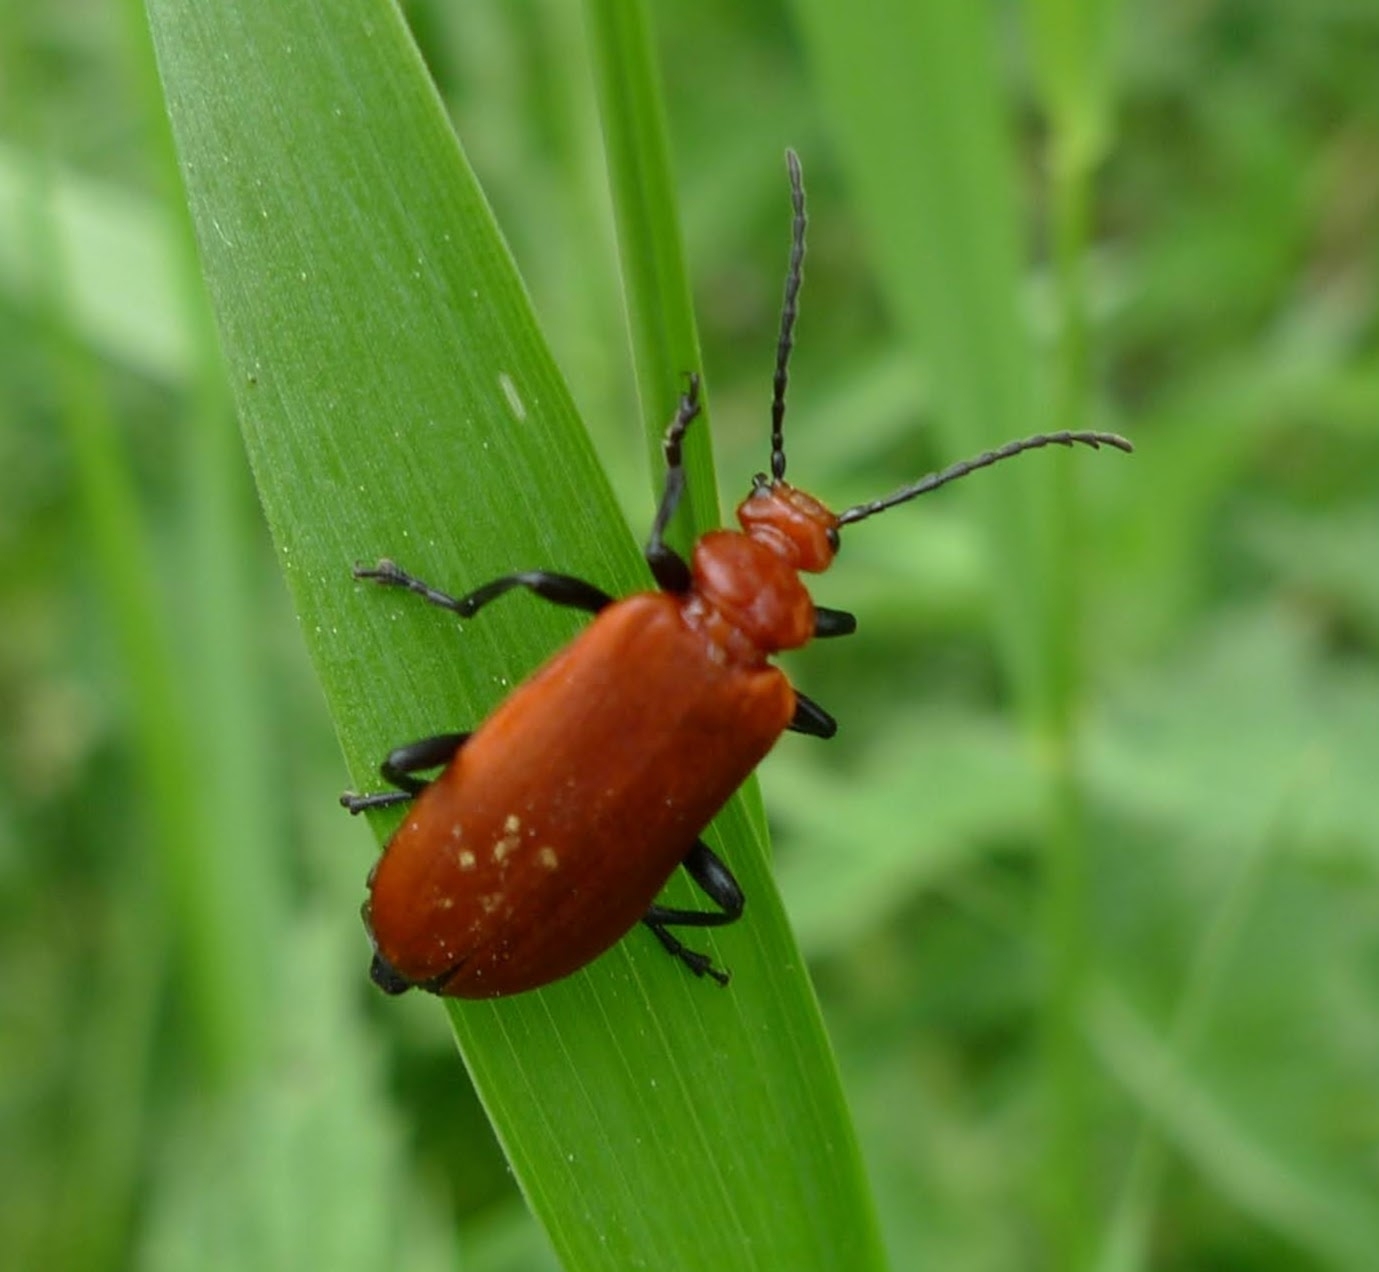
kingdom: Animalia
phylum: Arthropoda
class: Insecta
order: Coleoptera
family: Pyrochroidae
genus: Pyrochroa
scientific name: Pyrochroa serraticornis
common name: Red-headed cardinal beetle
